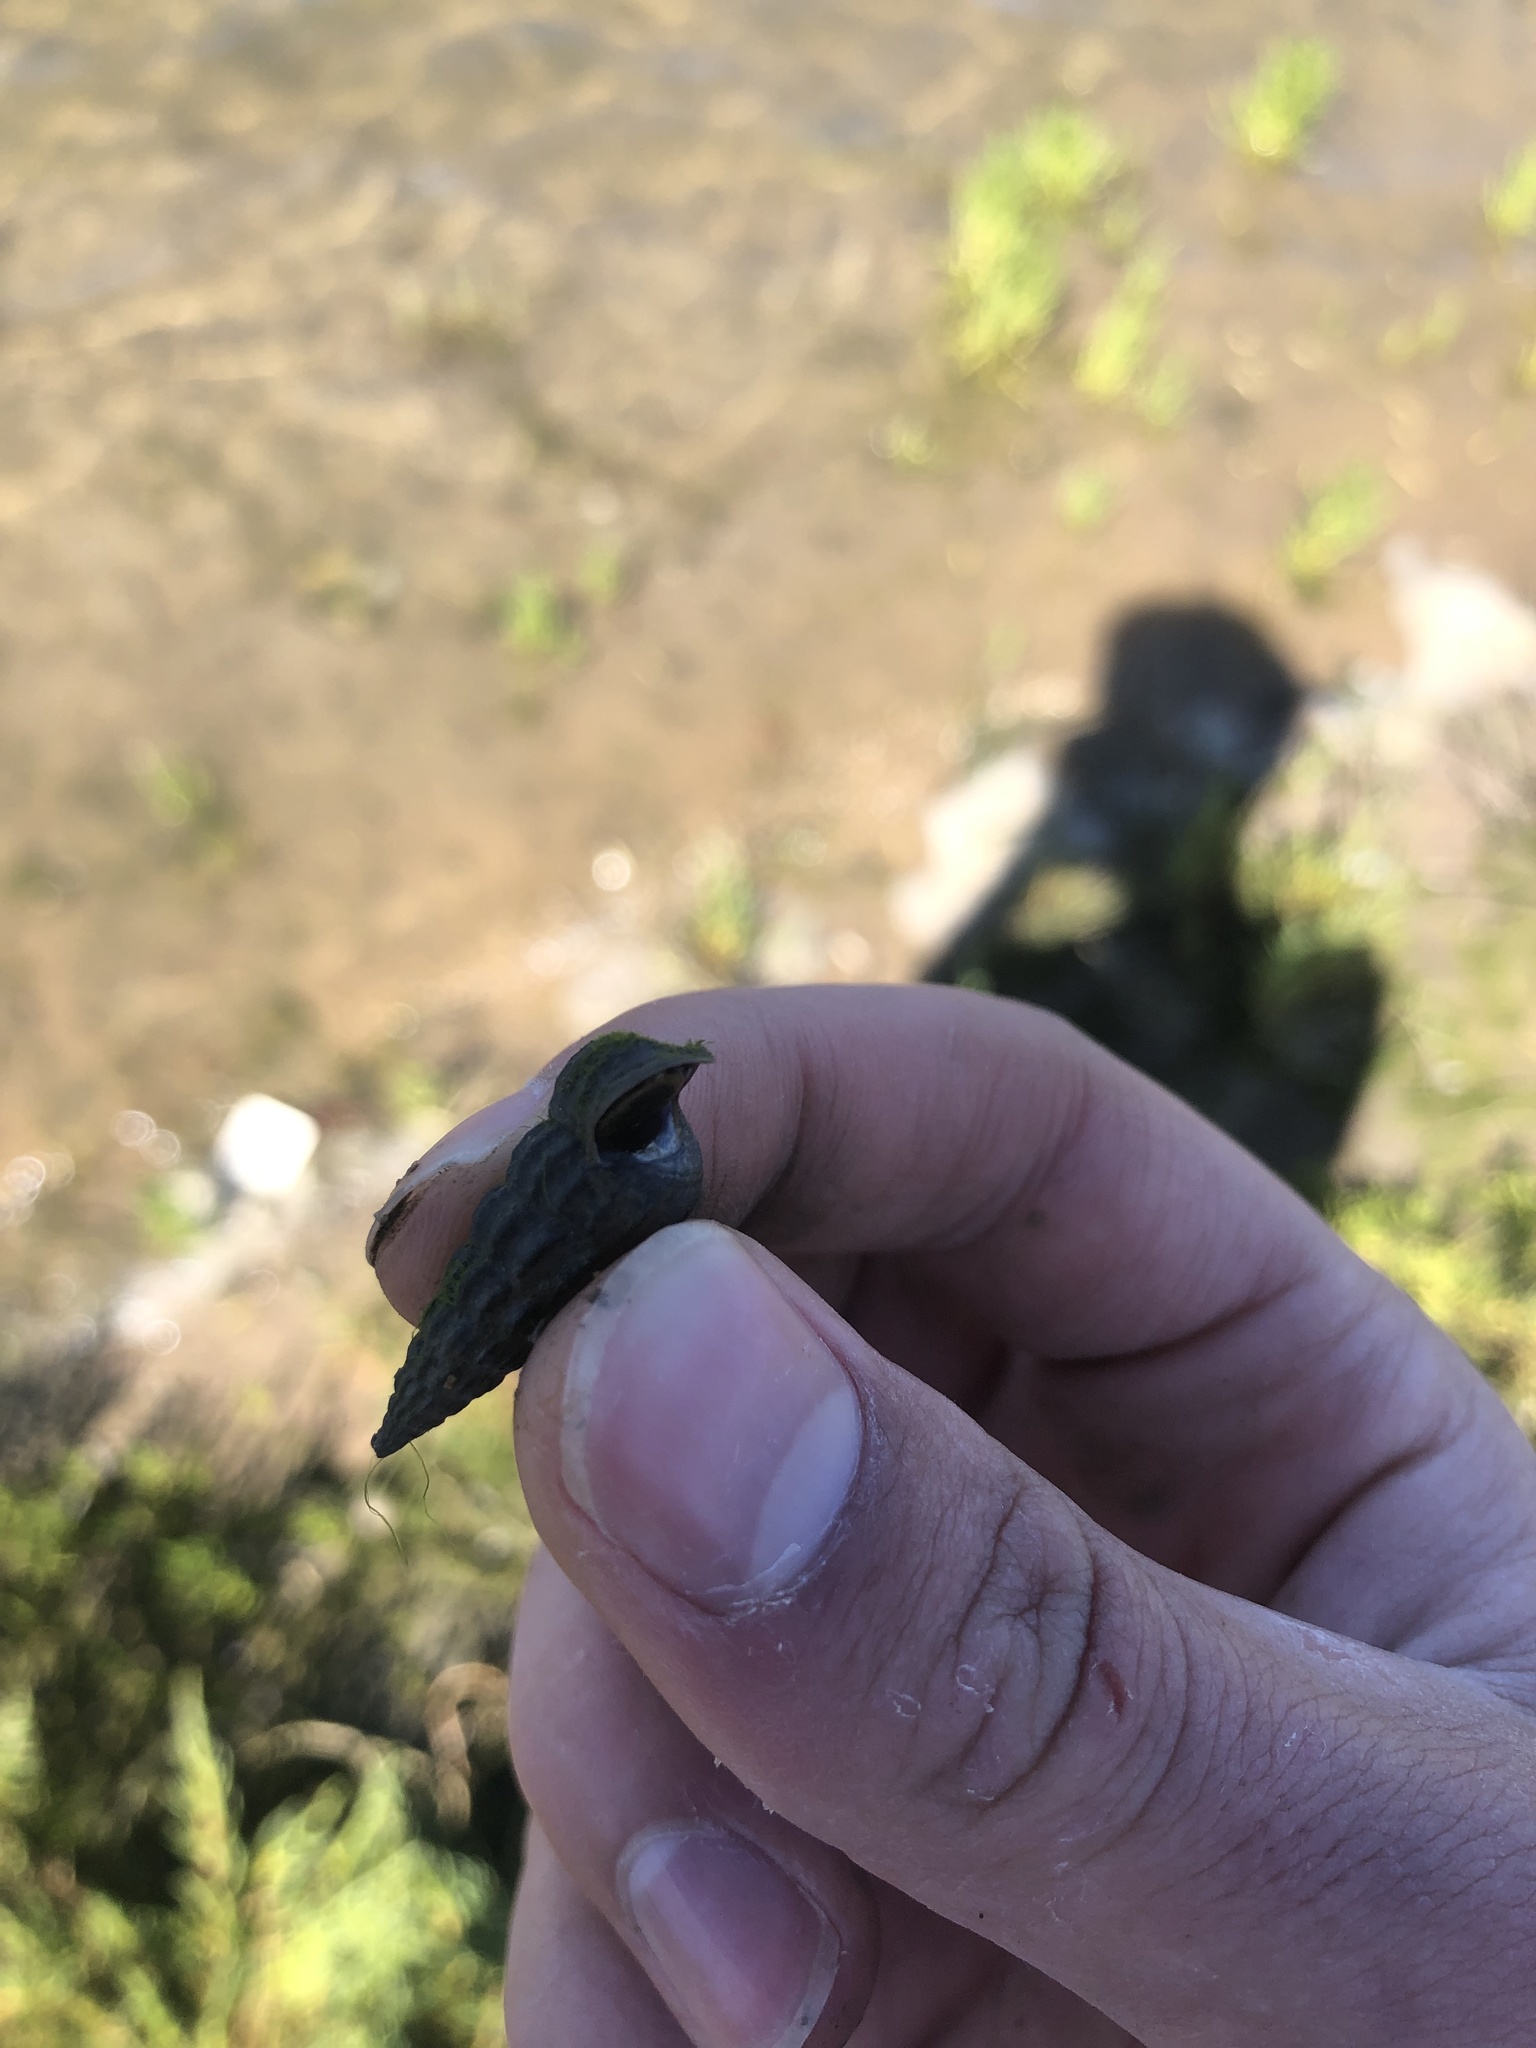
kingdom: Animalia
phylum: Mollusca
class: Gastropoda
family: Potamididae
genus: Cerithideopsis
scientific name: Cerithideopsis californica
